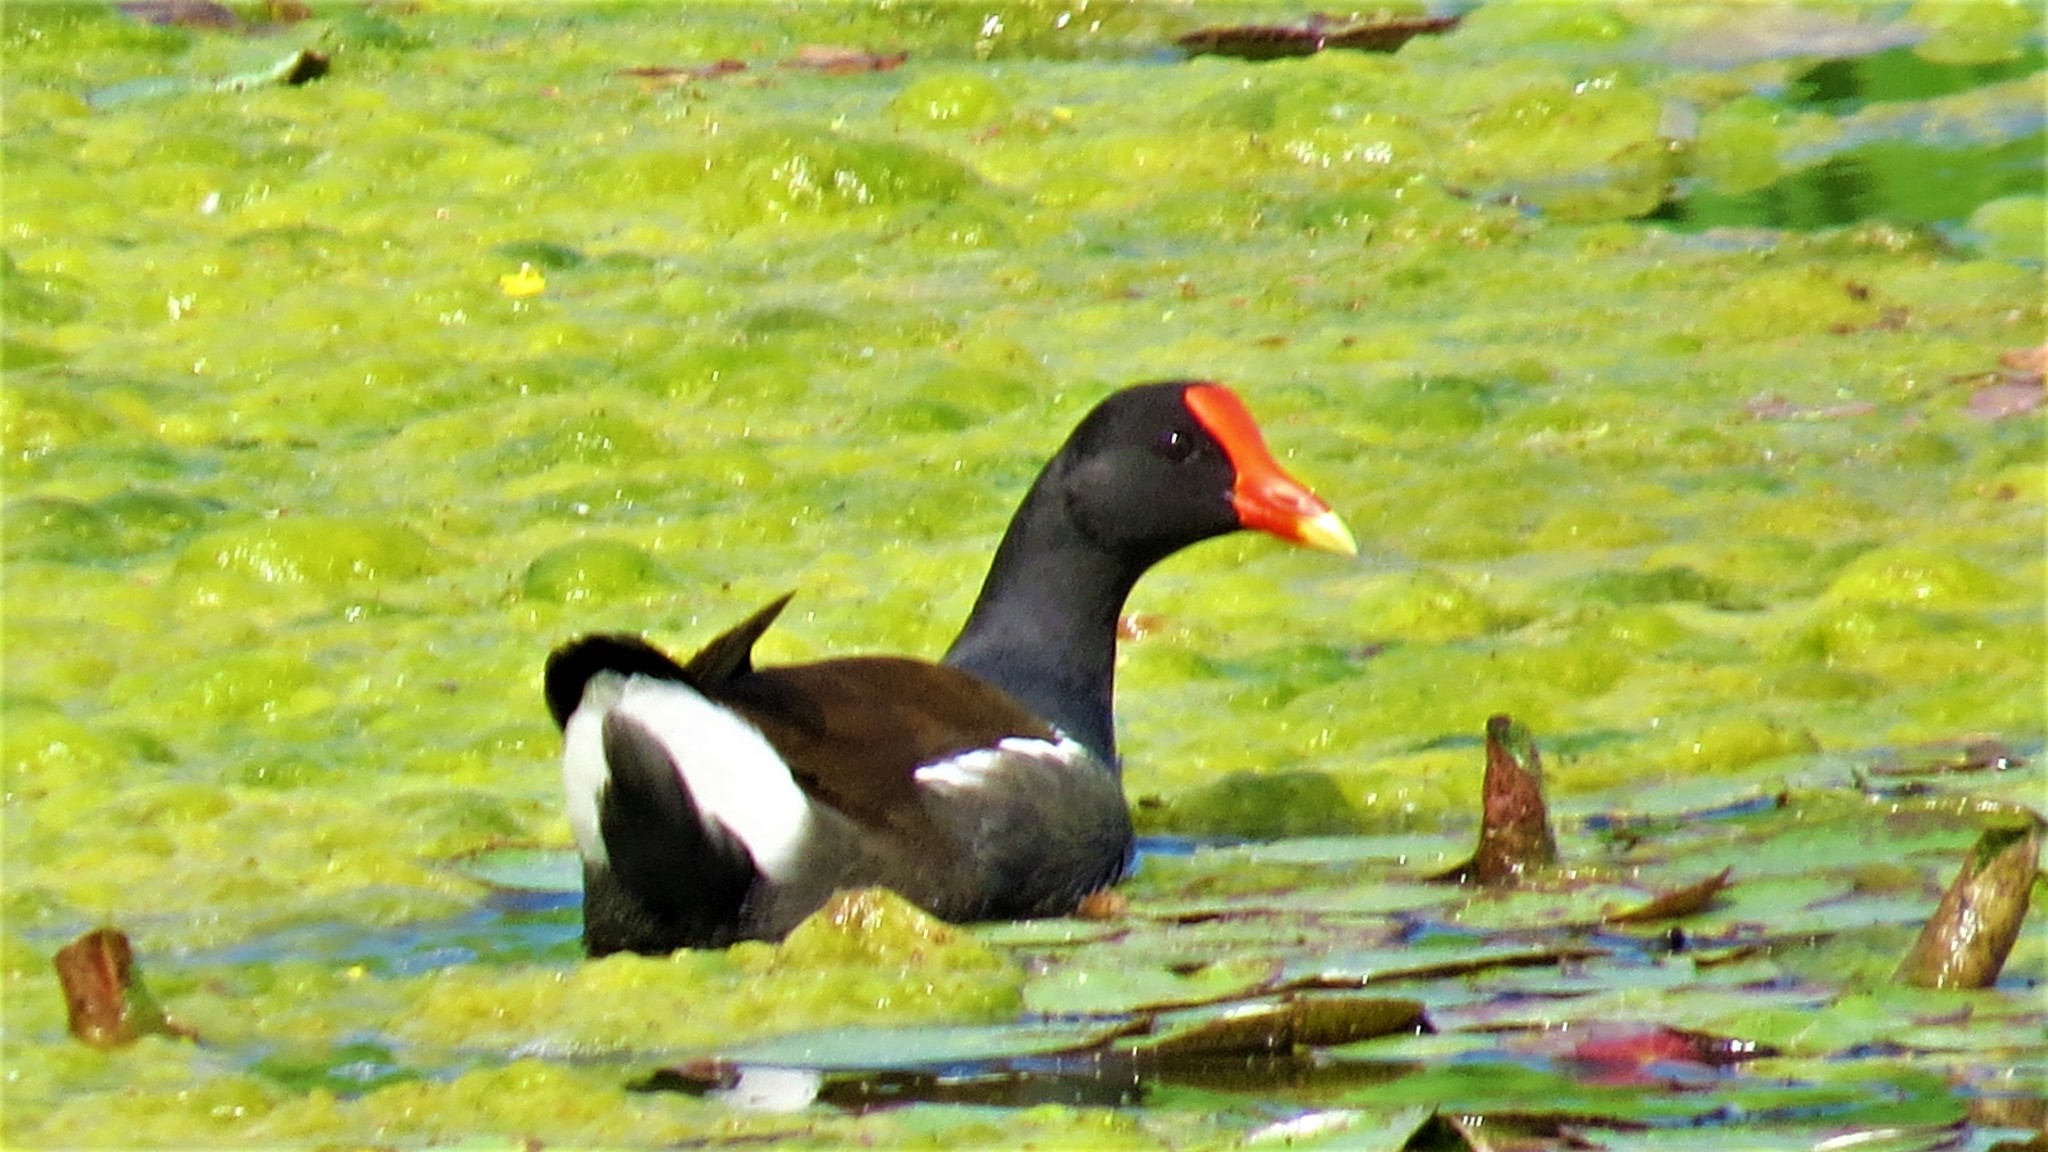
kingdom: Animalia
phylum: Chordata
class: Aves
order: Gruiformes
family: Rallidae
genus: Gallinula
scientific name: Gallinula chloropus
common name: Common moorhen
